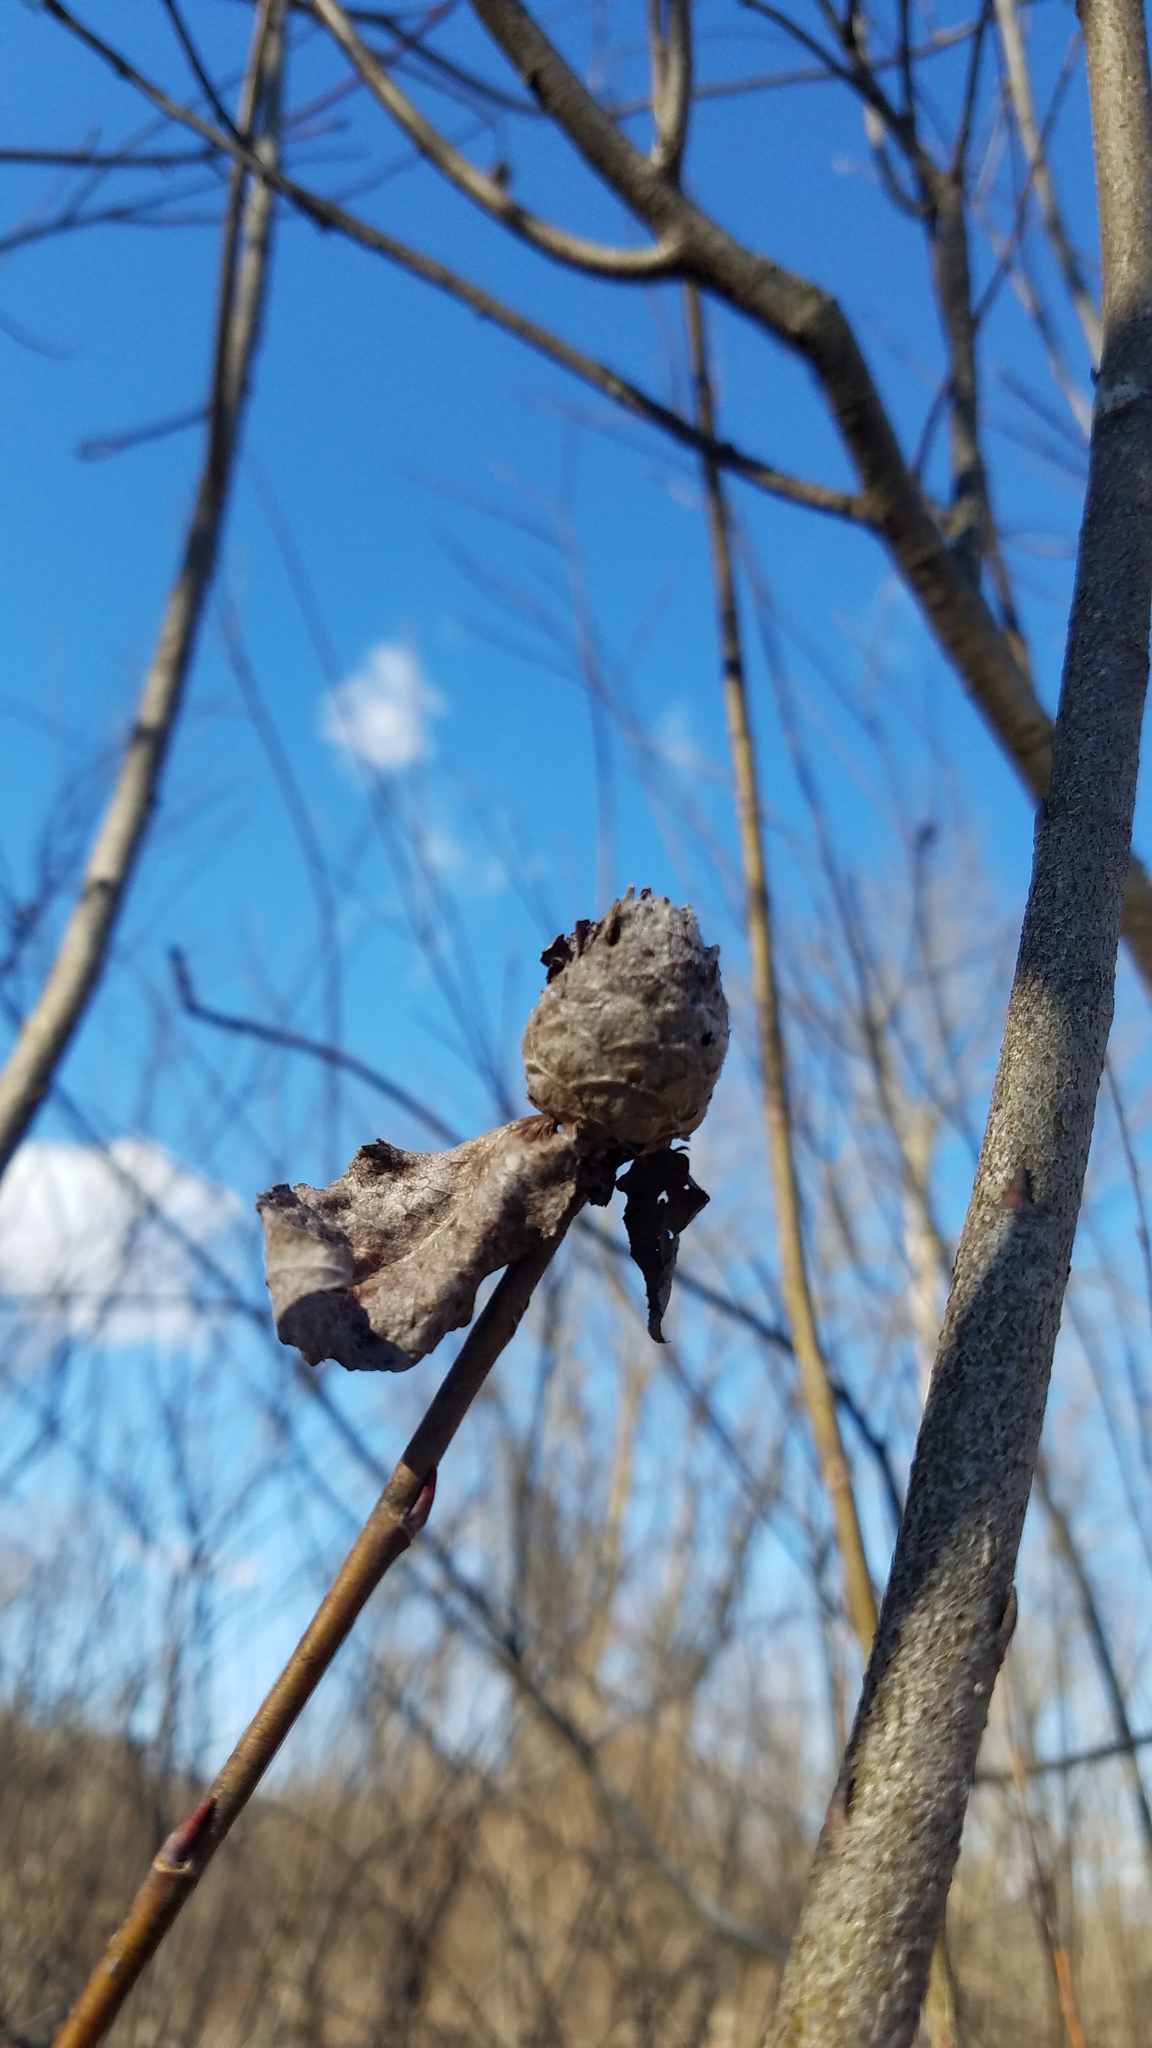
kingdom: Animalia
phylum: Arthropoda
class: Insecta
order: Diptera
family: Cecidomyiidae
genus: Rabdophaga
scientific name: Rabdophaga strobiloides
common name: Willow pinecone gall midge
